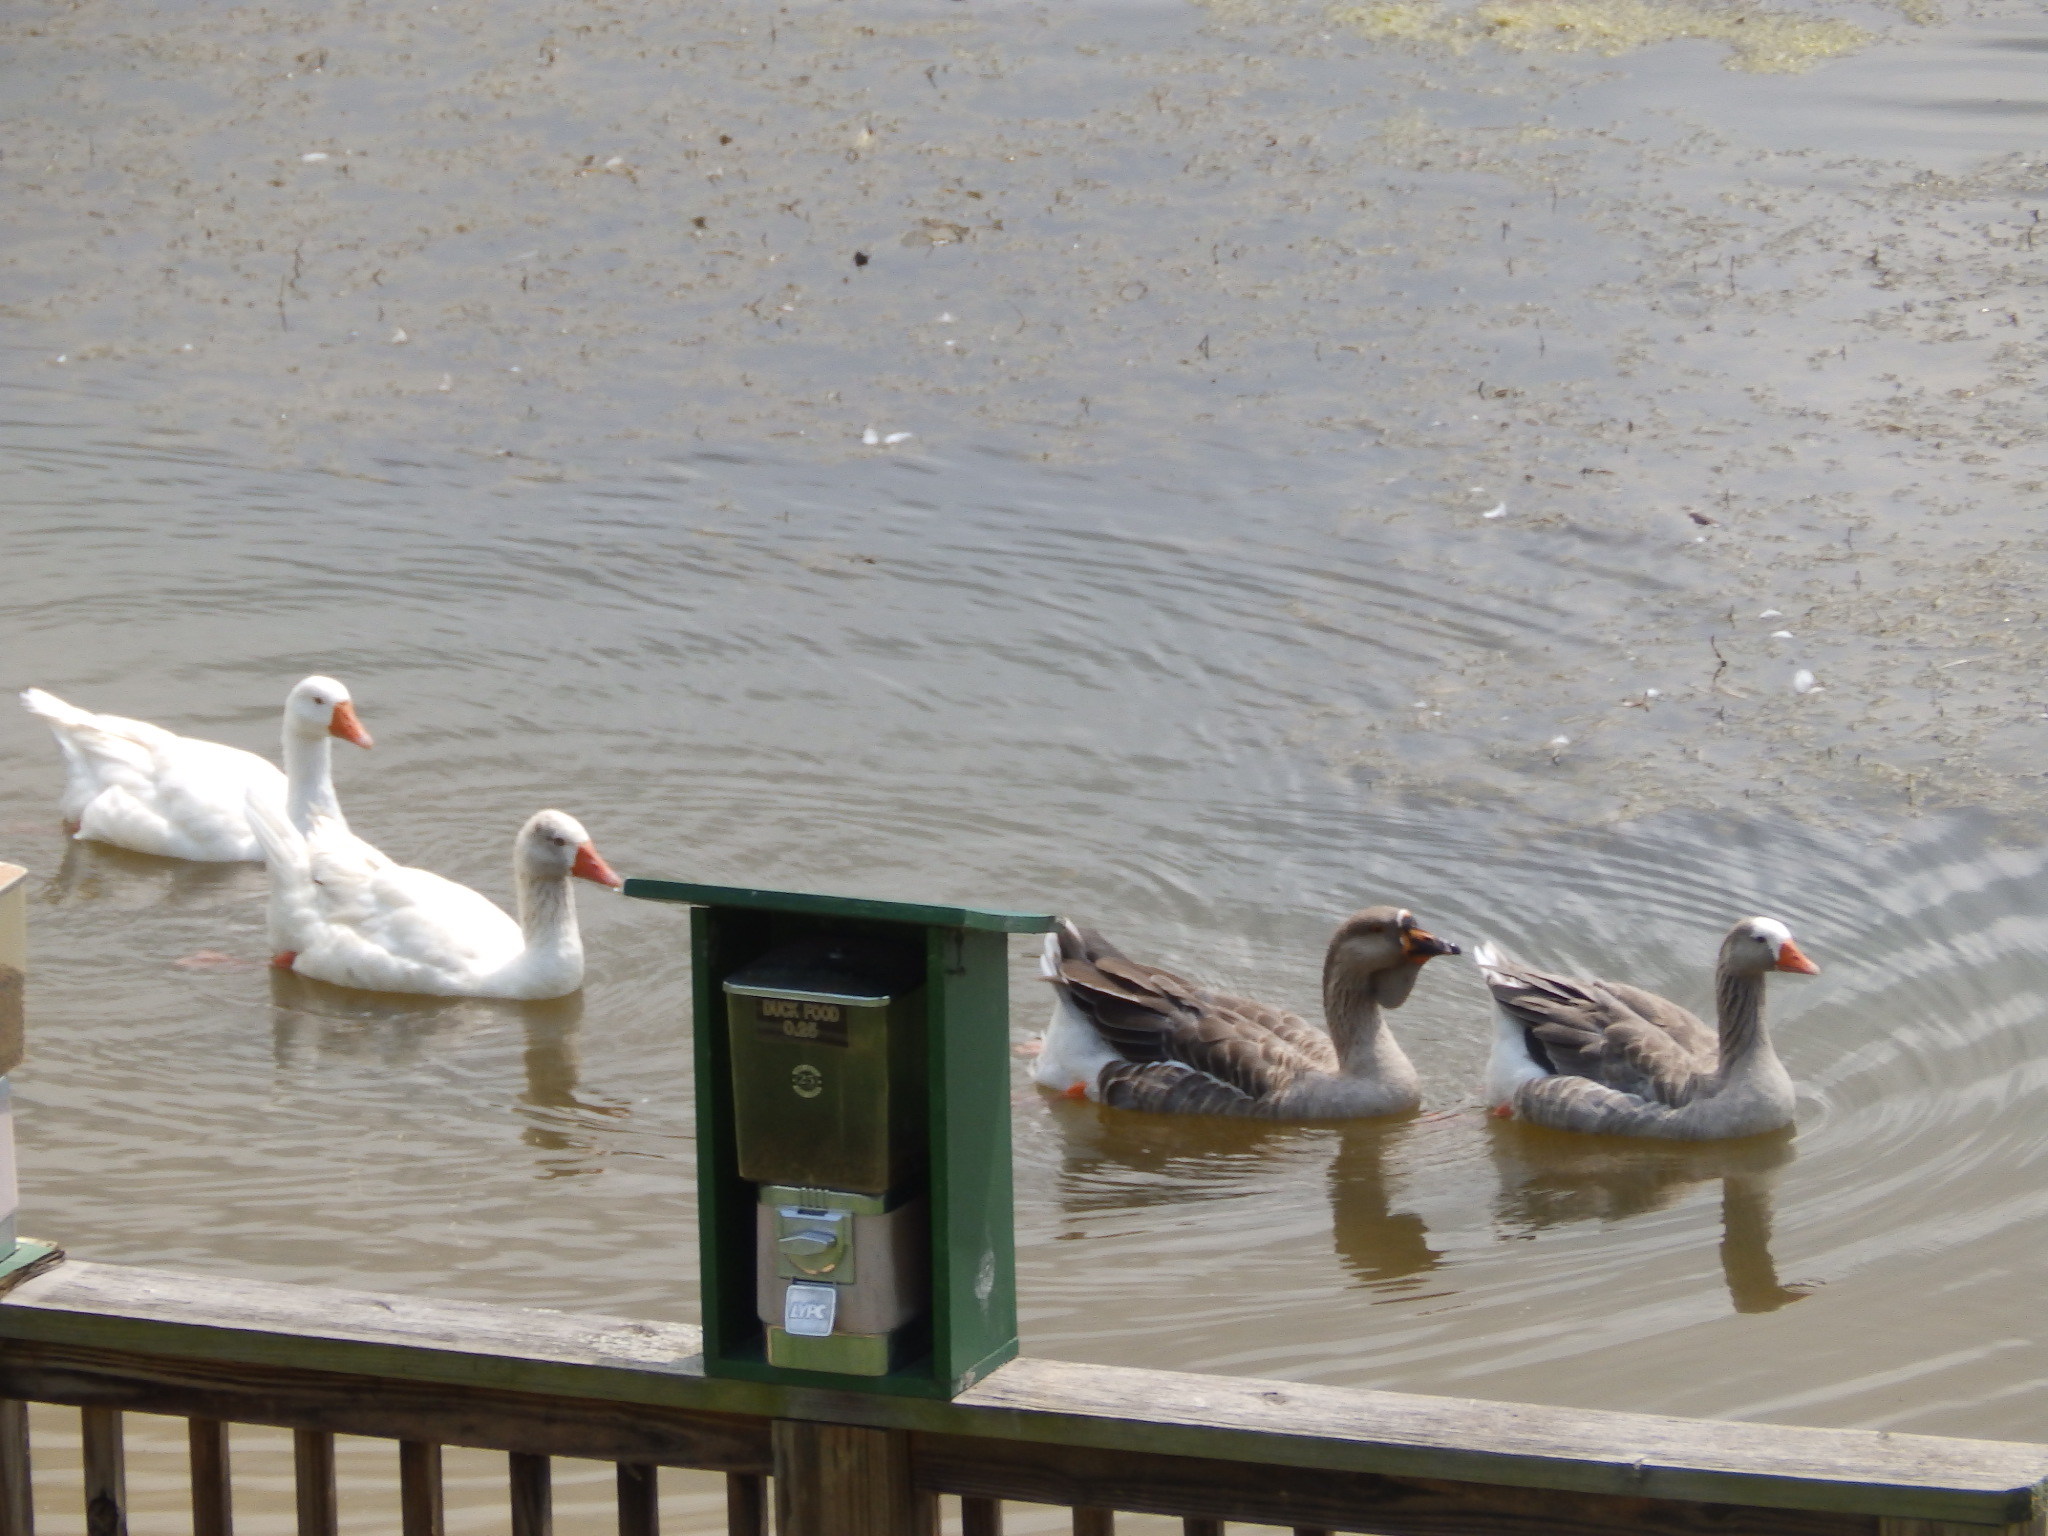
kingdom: Animalia
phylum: Chordata
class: Aves
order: Anseriformes
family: Anatidae
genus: Anser
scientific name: Anser anser
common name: Greylag goose
